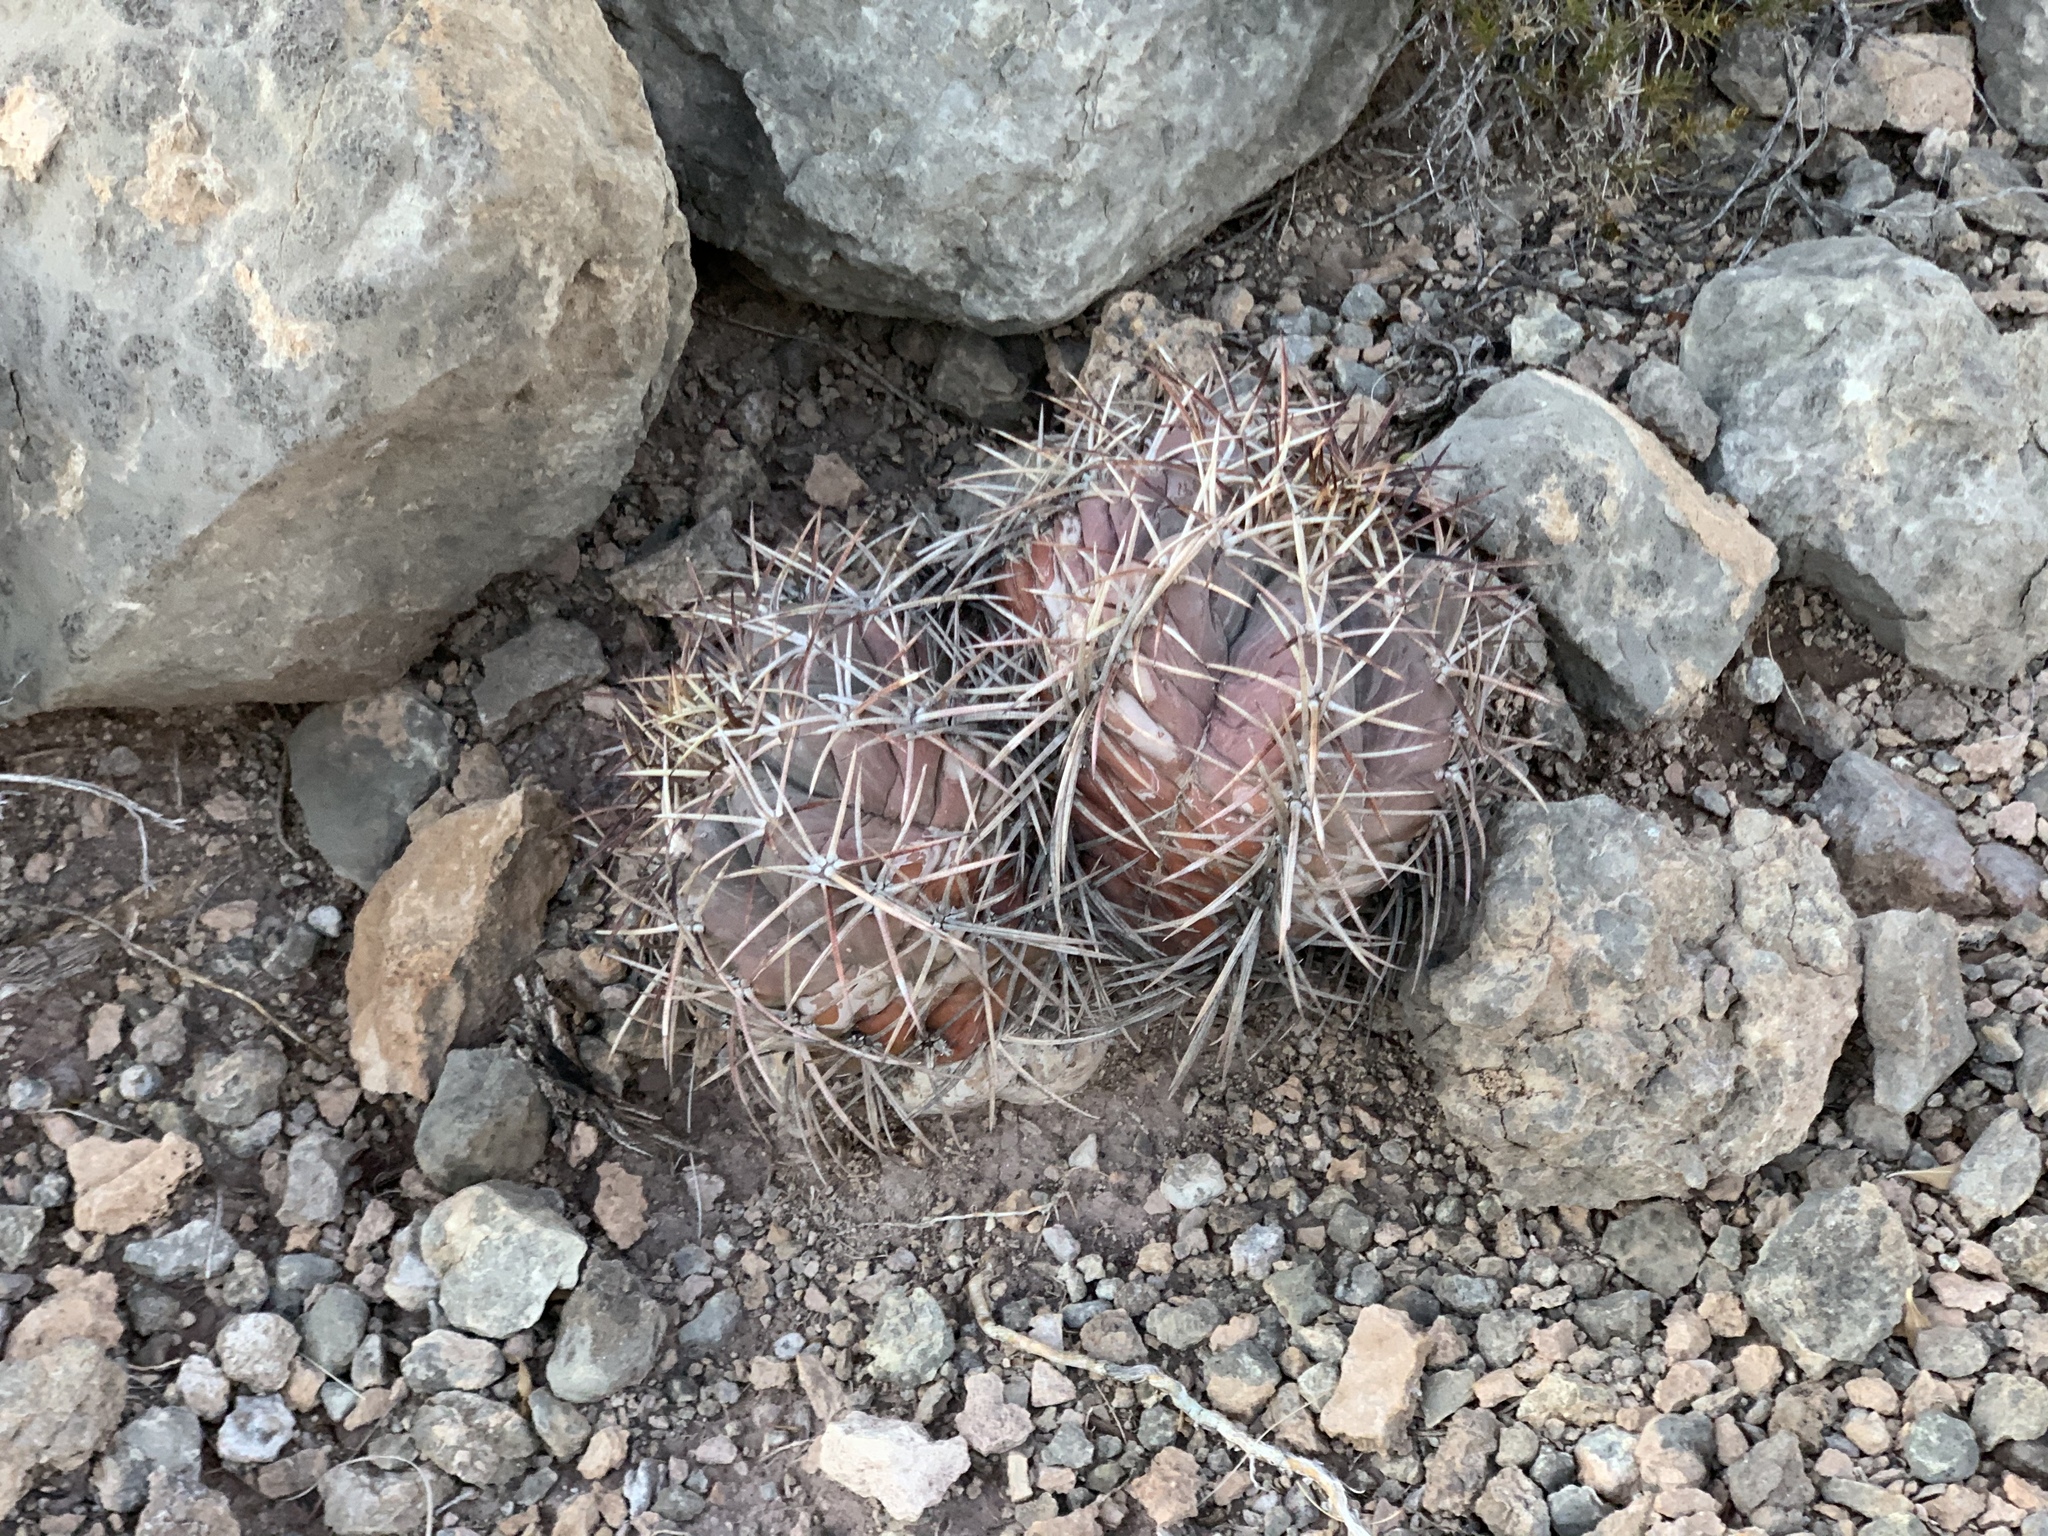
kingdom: Plantae
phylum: Tracheophyta
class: Magnoliopsida
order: Caryophyllales
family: Cactaceae
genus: Echinocactus
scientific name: Echinocactus horizonthalonius
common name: Devilshead
